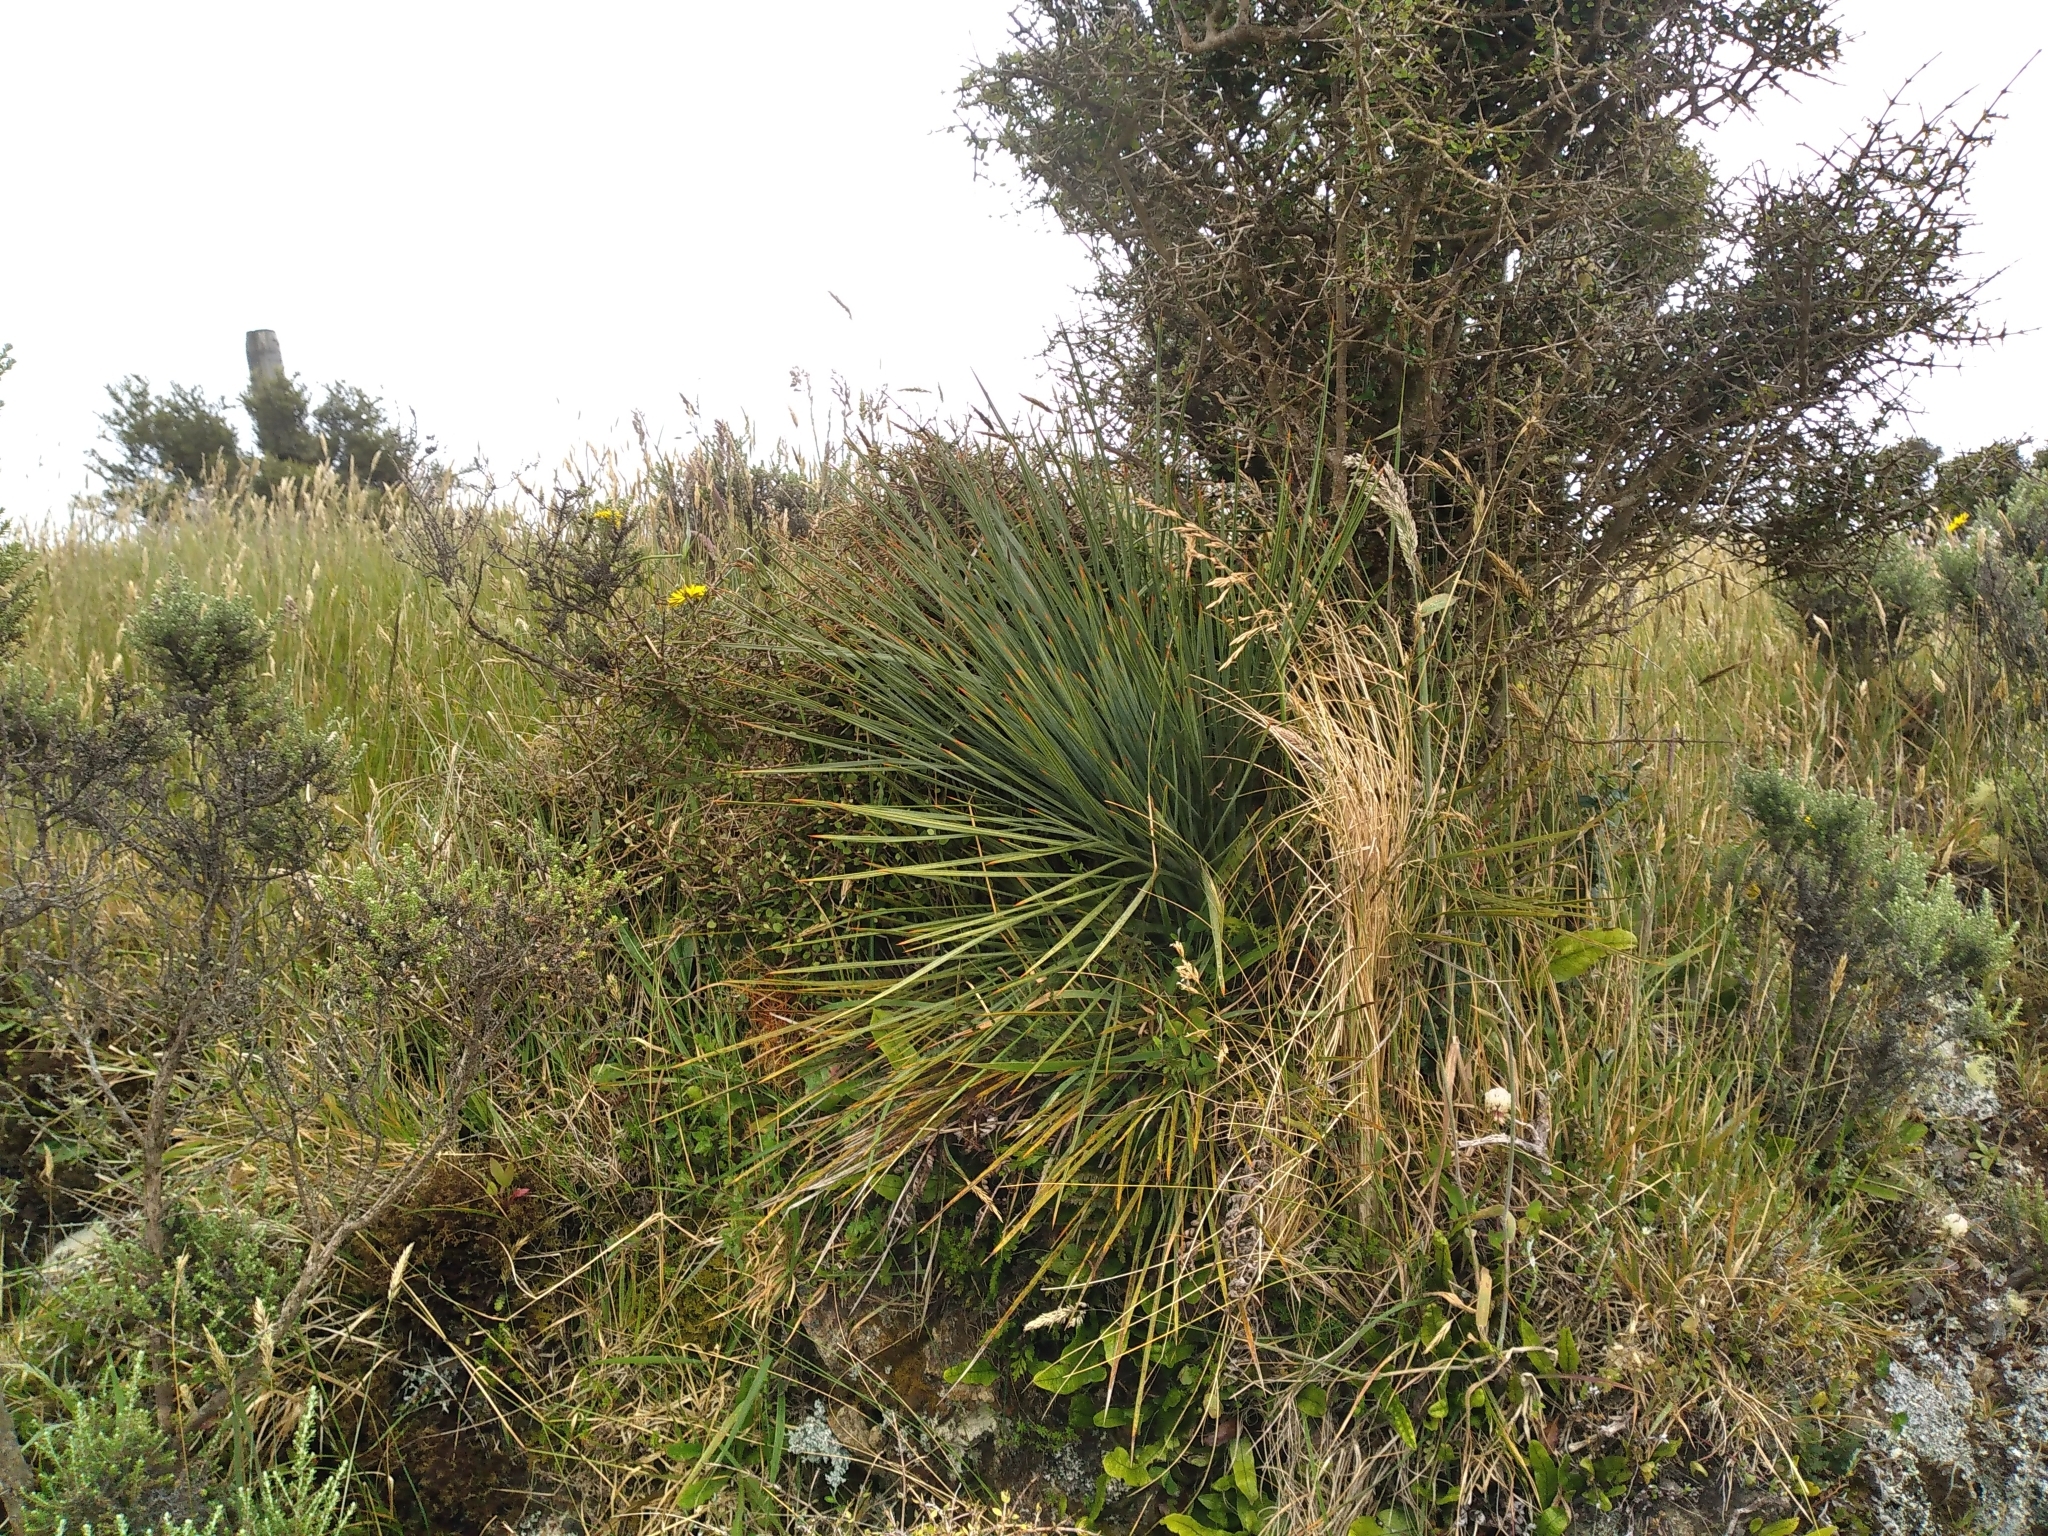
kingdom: Plantae
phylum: Tracheophyta
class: Magnoliopsida
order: Apiales
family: Apiaceae
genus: Aciphylla
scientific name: Aciphylla squarrosa
